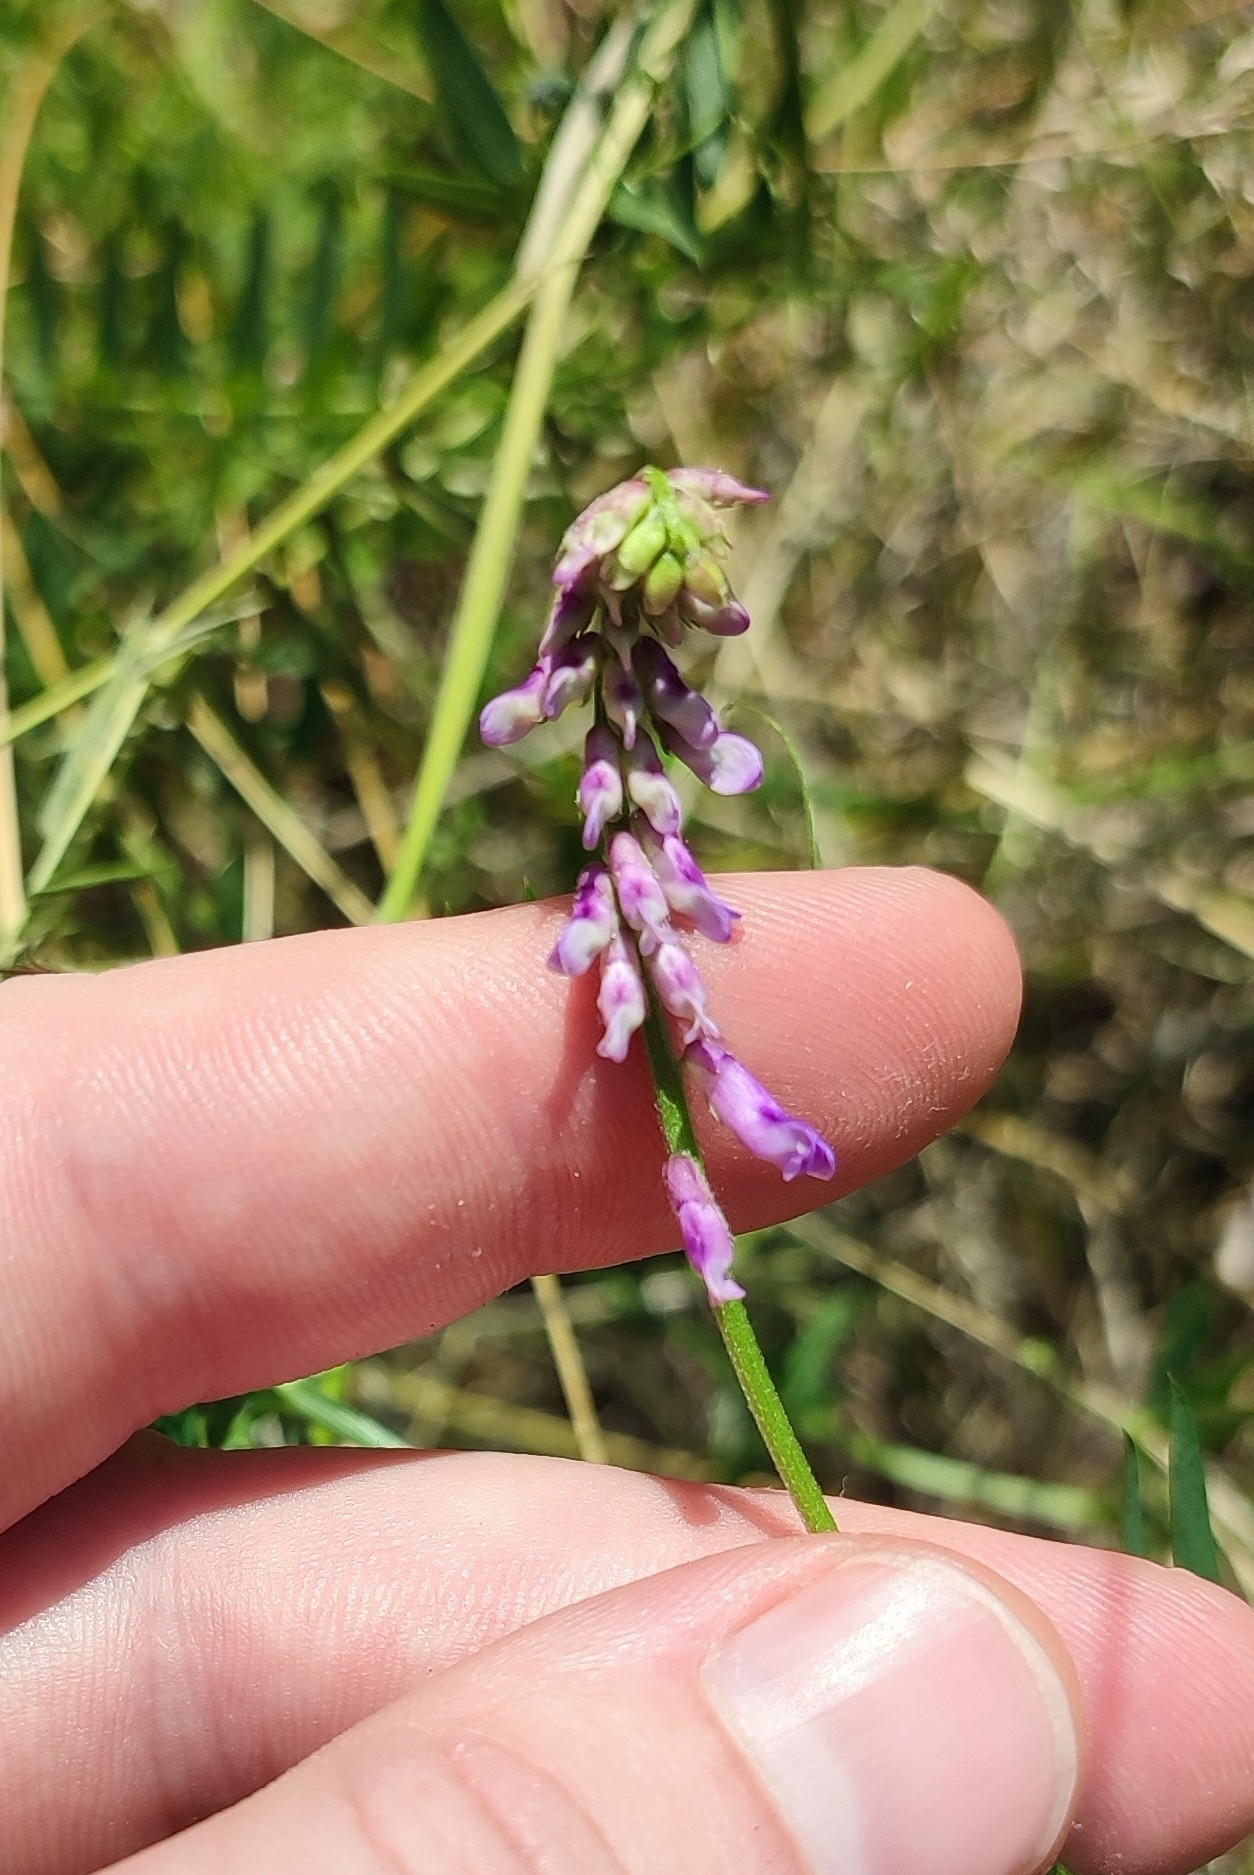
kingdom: Plantae
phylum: Tracheophyta
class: Magnoliopsida
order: Fabales
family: Fabaceae
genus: Vicia
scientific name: Vicia tenuifolia
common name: Fine-leaved vetch
